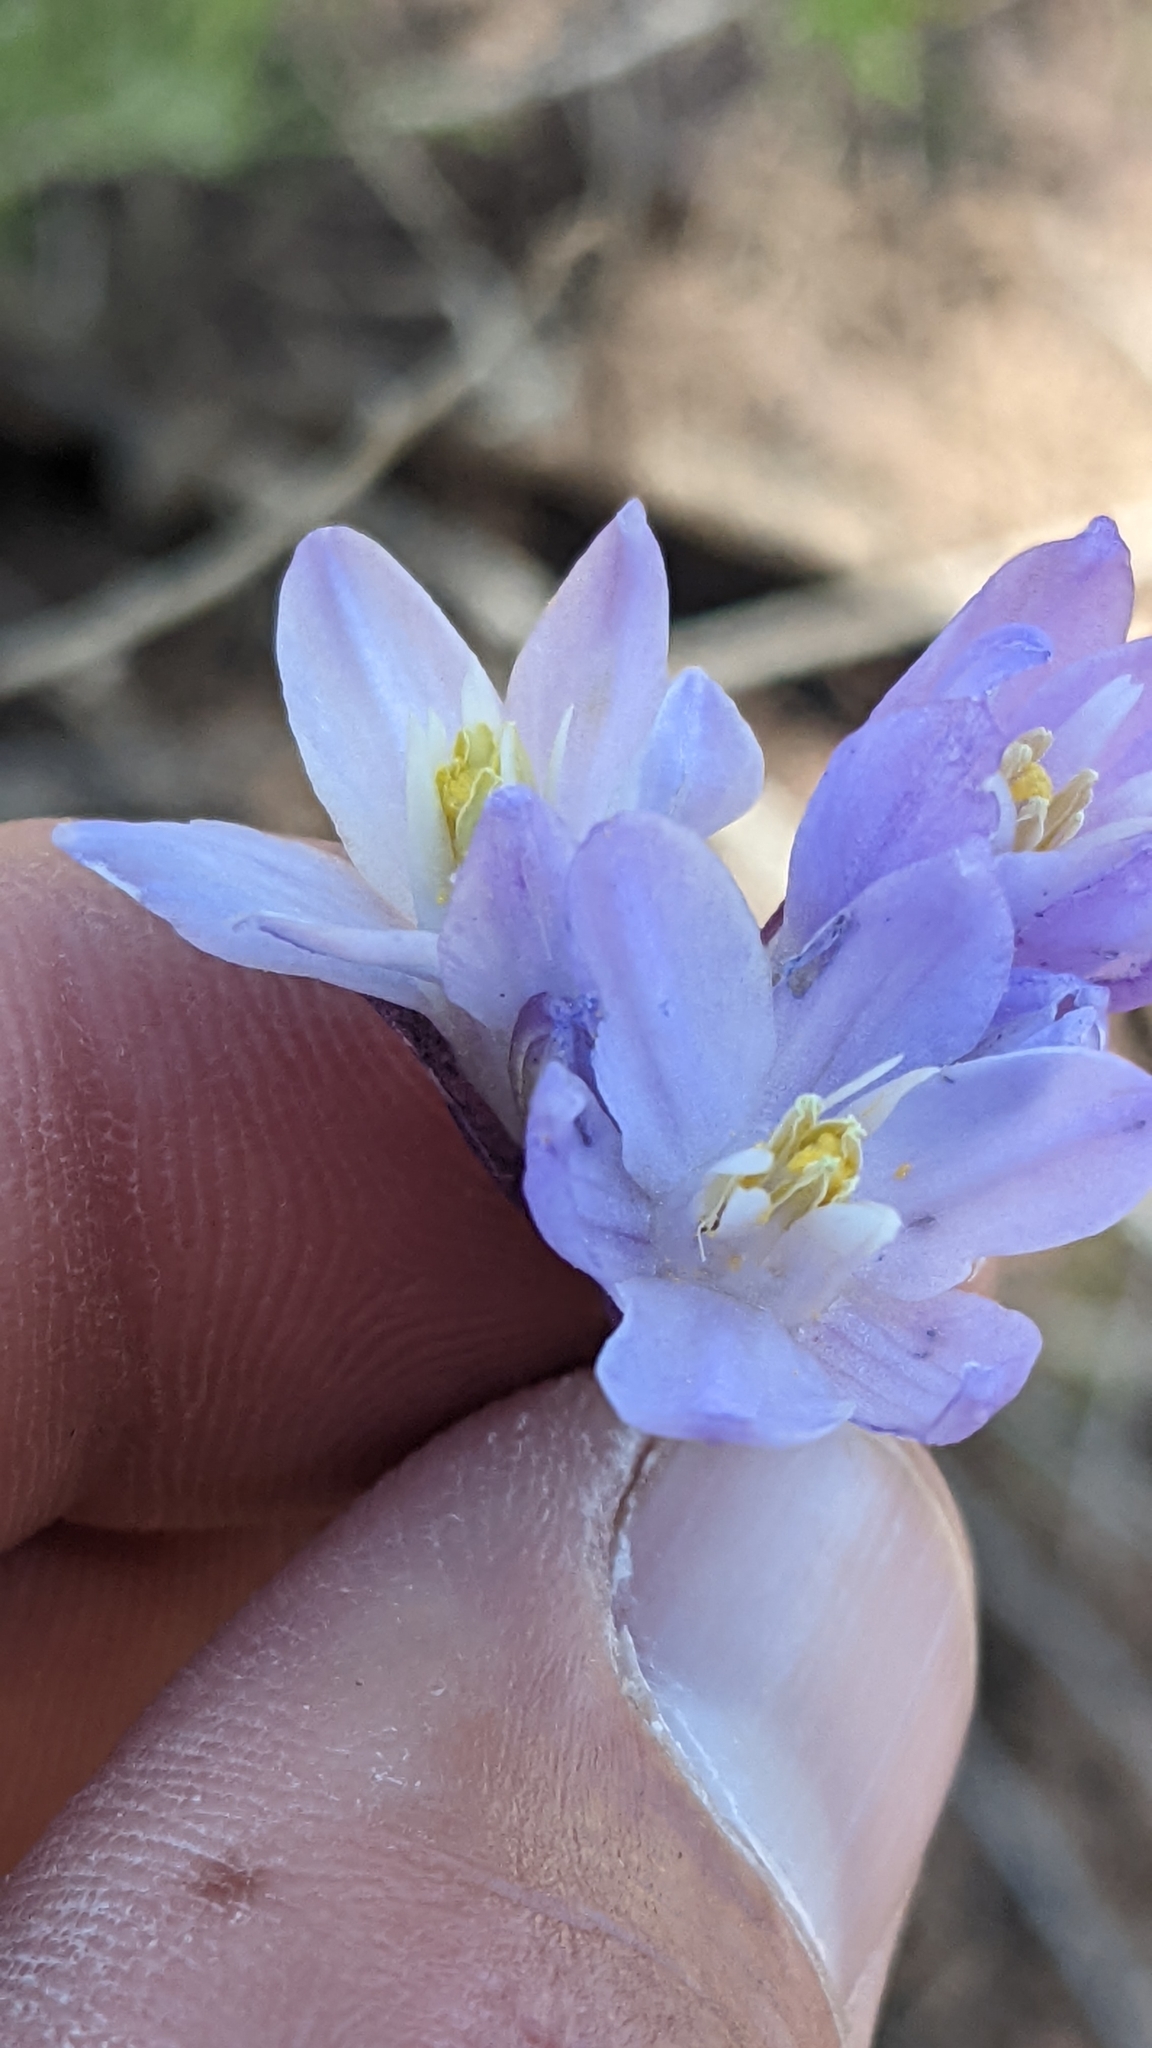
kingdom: Plantae
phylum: Tracheophyta
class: Liliopsida
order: Asparagales
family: Asparagaceae
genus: Dipterostemon
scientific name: Dipterostemon capitatus
